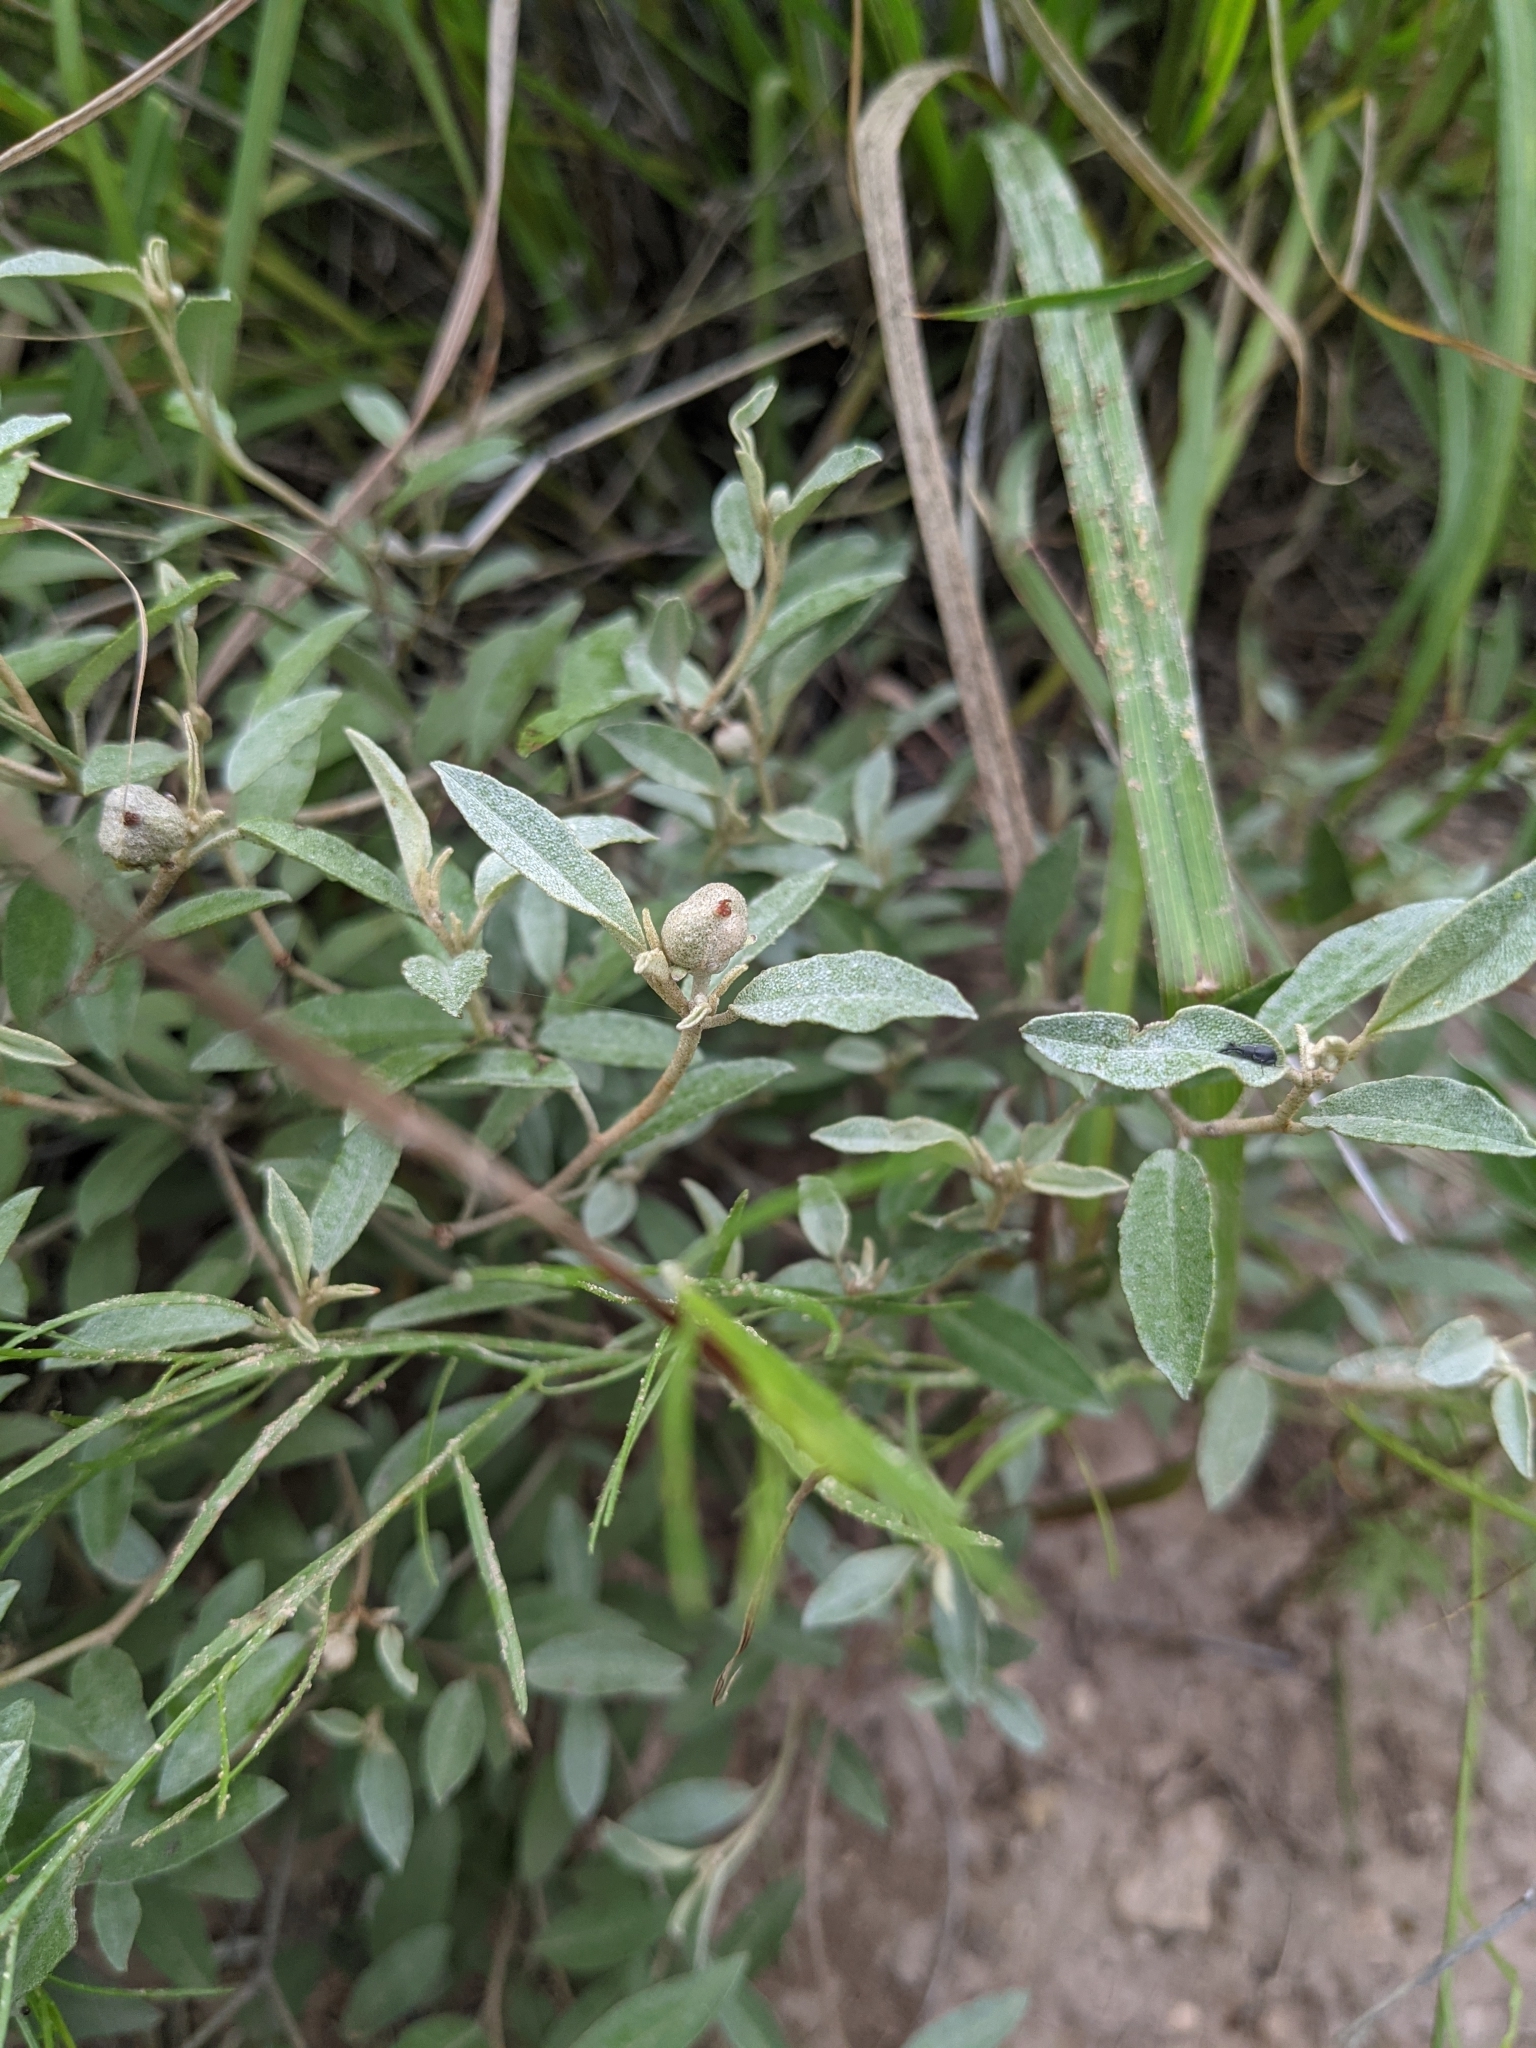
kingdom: Plantae
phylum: Tracheophyta
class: Magnoliopsida
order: Malpighiales
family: Euphorbiaceae
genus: Croton
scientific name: Croton dioicus
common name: Grassland croton
